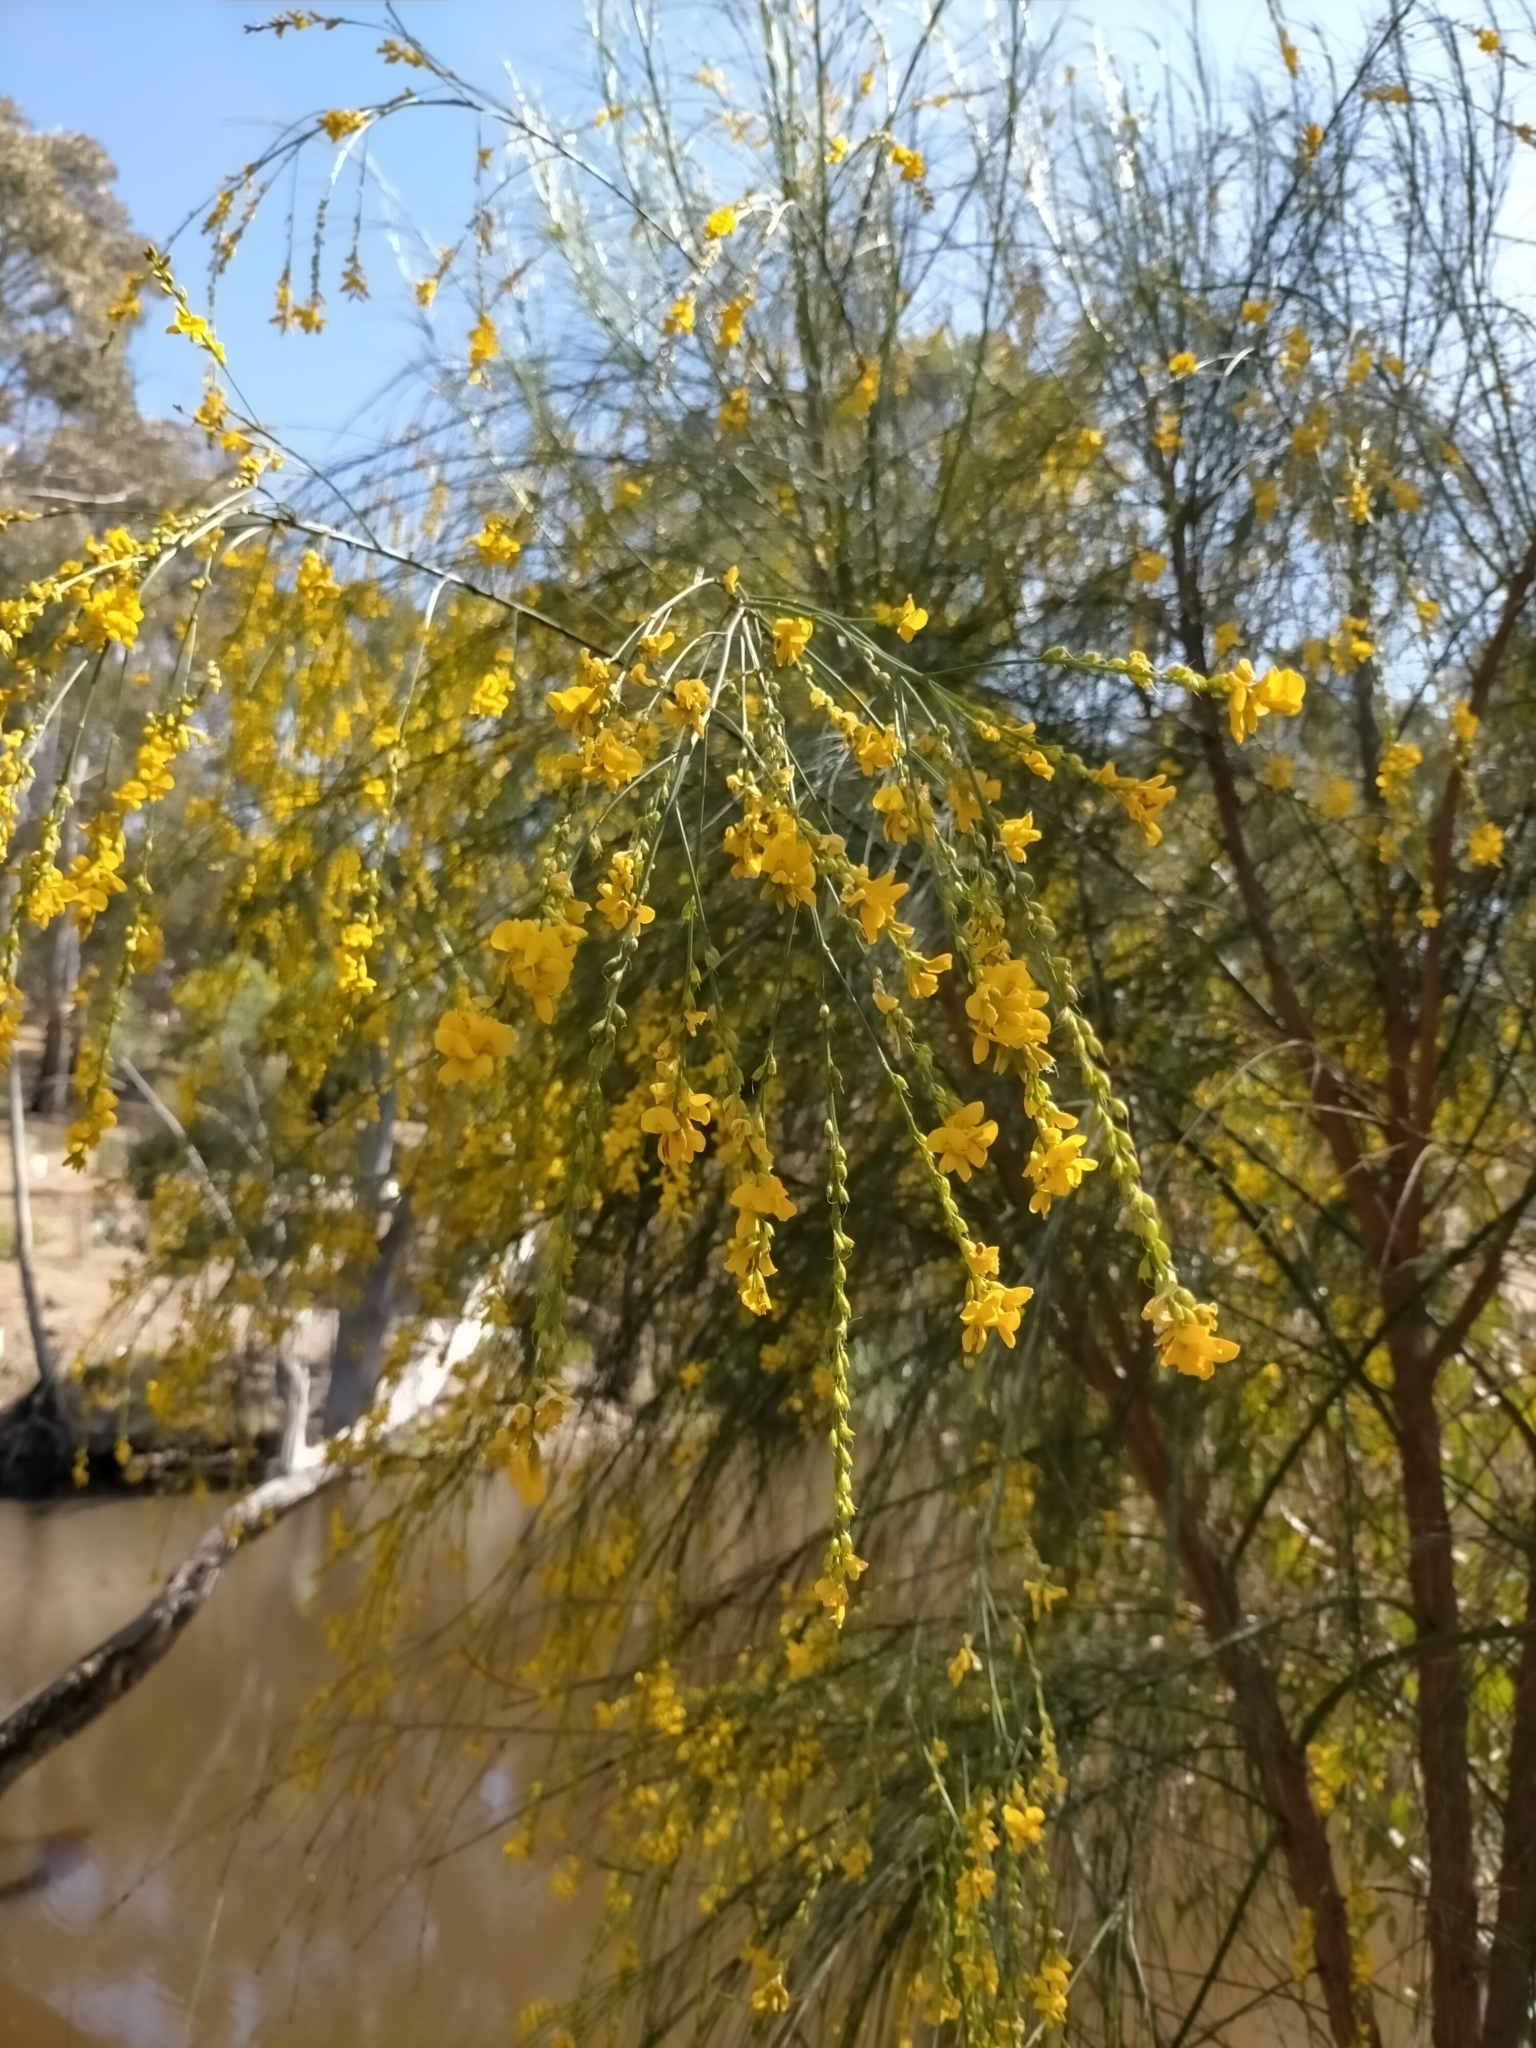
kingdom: Plantae
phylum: Tracheophyta
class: Magnoliopsida
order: Fabales
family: Fabaceae
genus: Viminaria
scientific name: Viminaria juncea
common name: Golden spray
